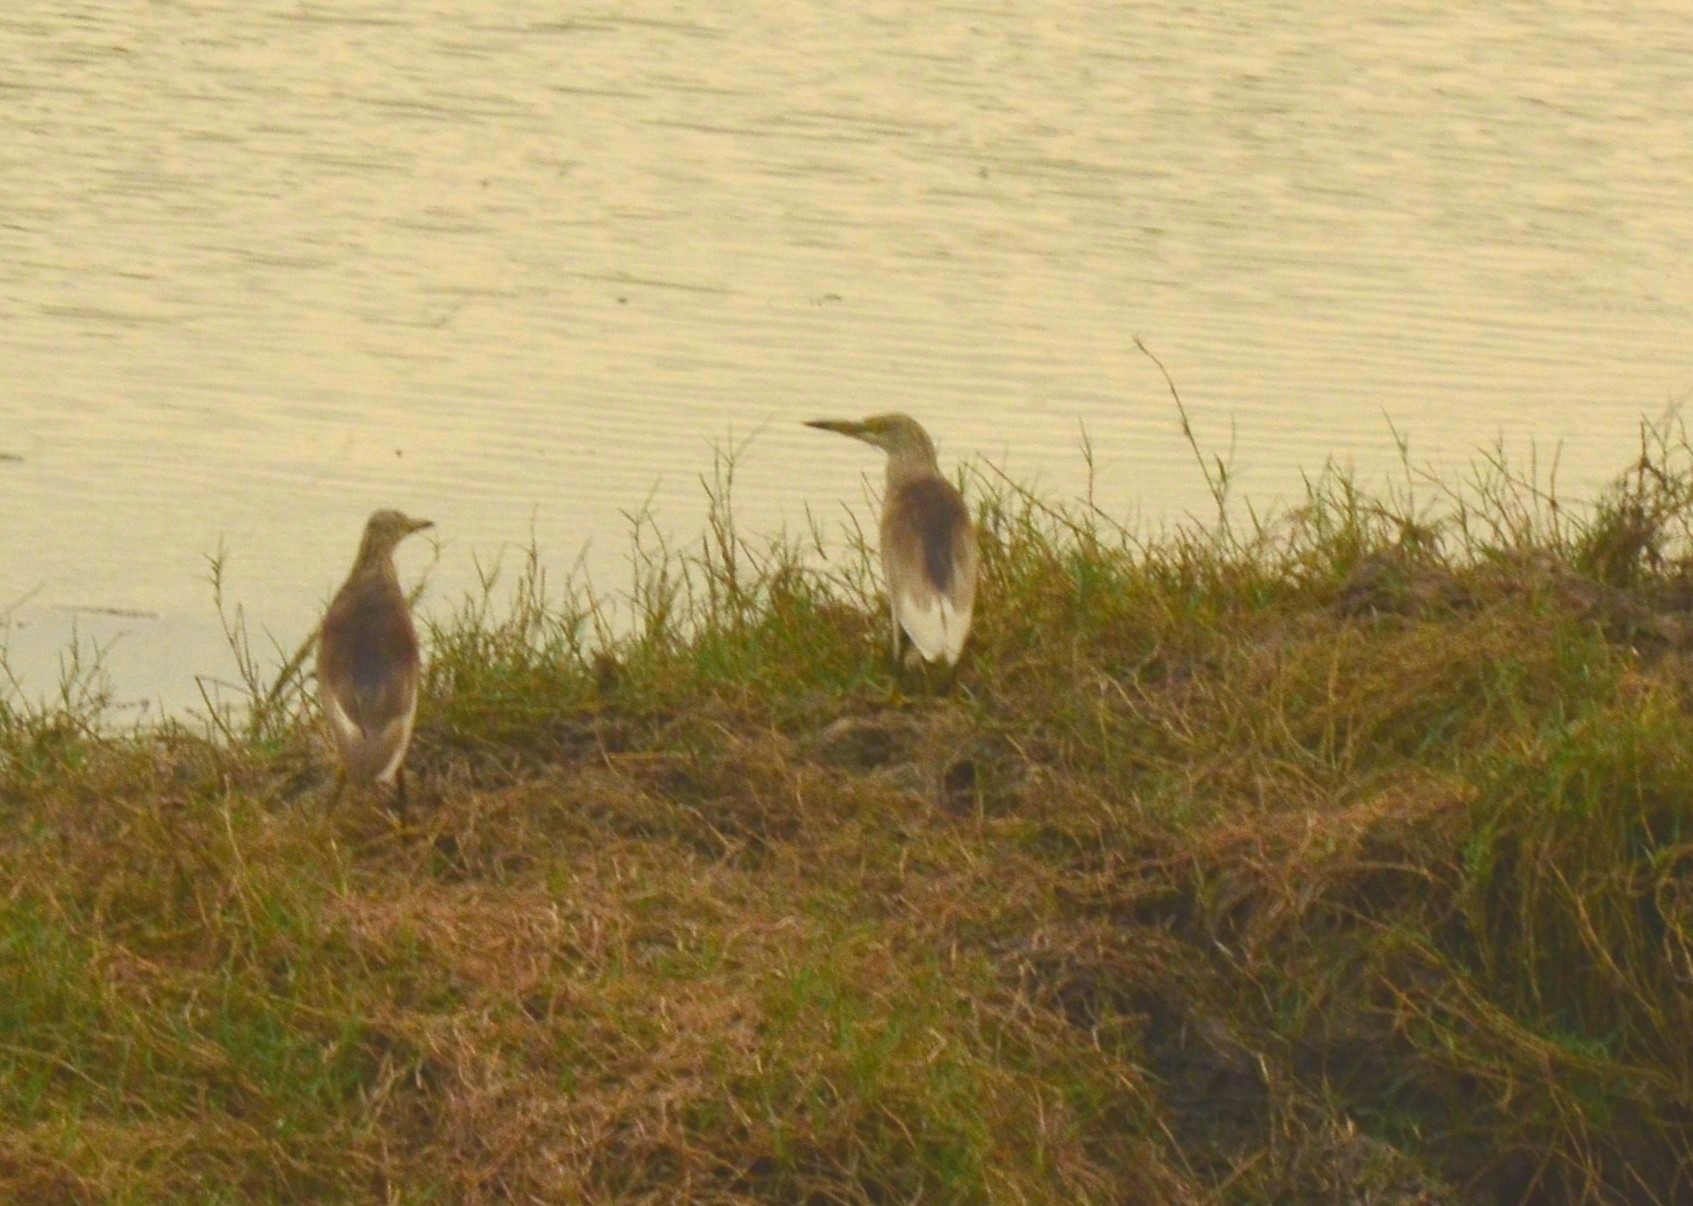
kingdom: Animalia
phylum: Chordata
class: Aves
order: Pelecaniformes
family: Ardeidae
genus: Ardeola
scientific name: Ardeola grayii
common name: Indian pond heron
